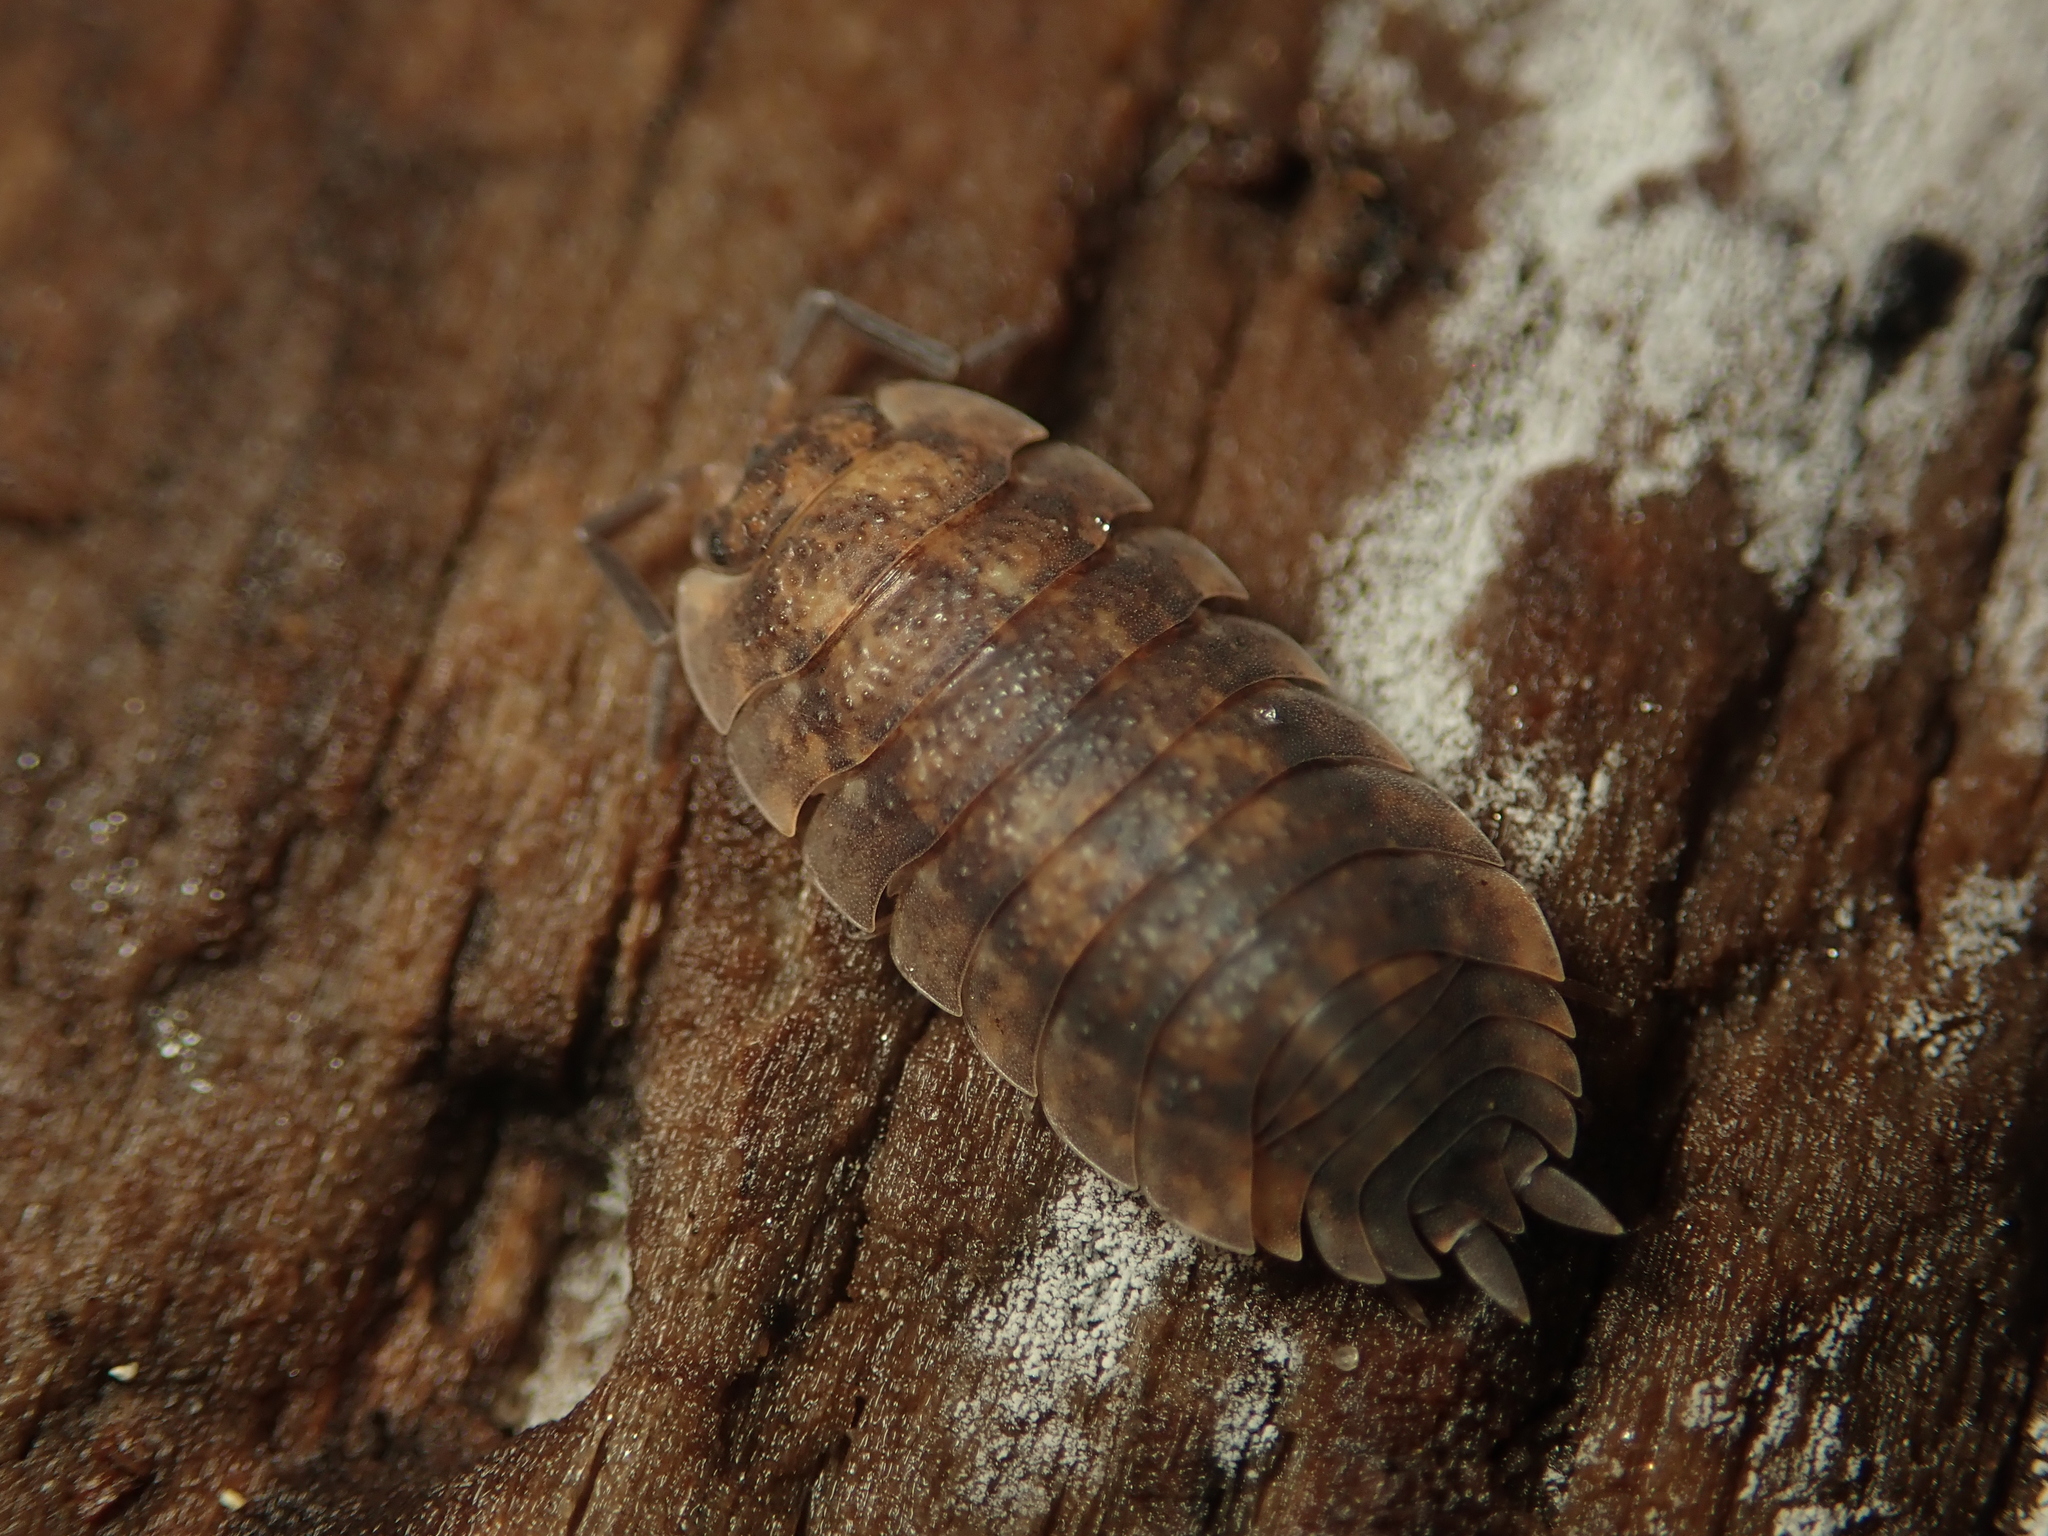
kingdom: Animalia
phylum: Arthropoda
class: Malacostraca
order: Isopoda
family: Porcellionidae
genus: Porcellio
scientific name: Porcellio scaber
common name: Common rough woodlouse
